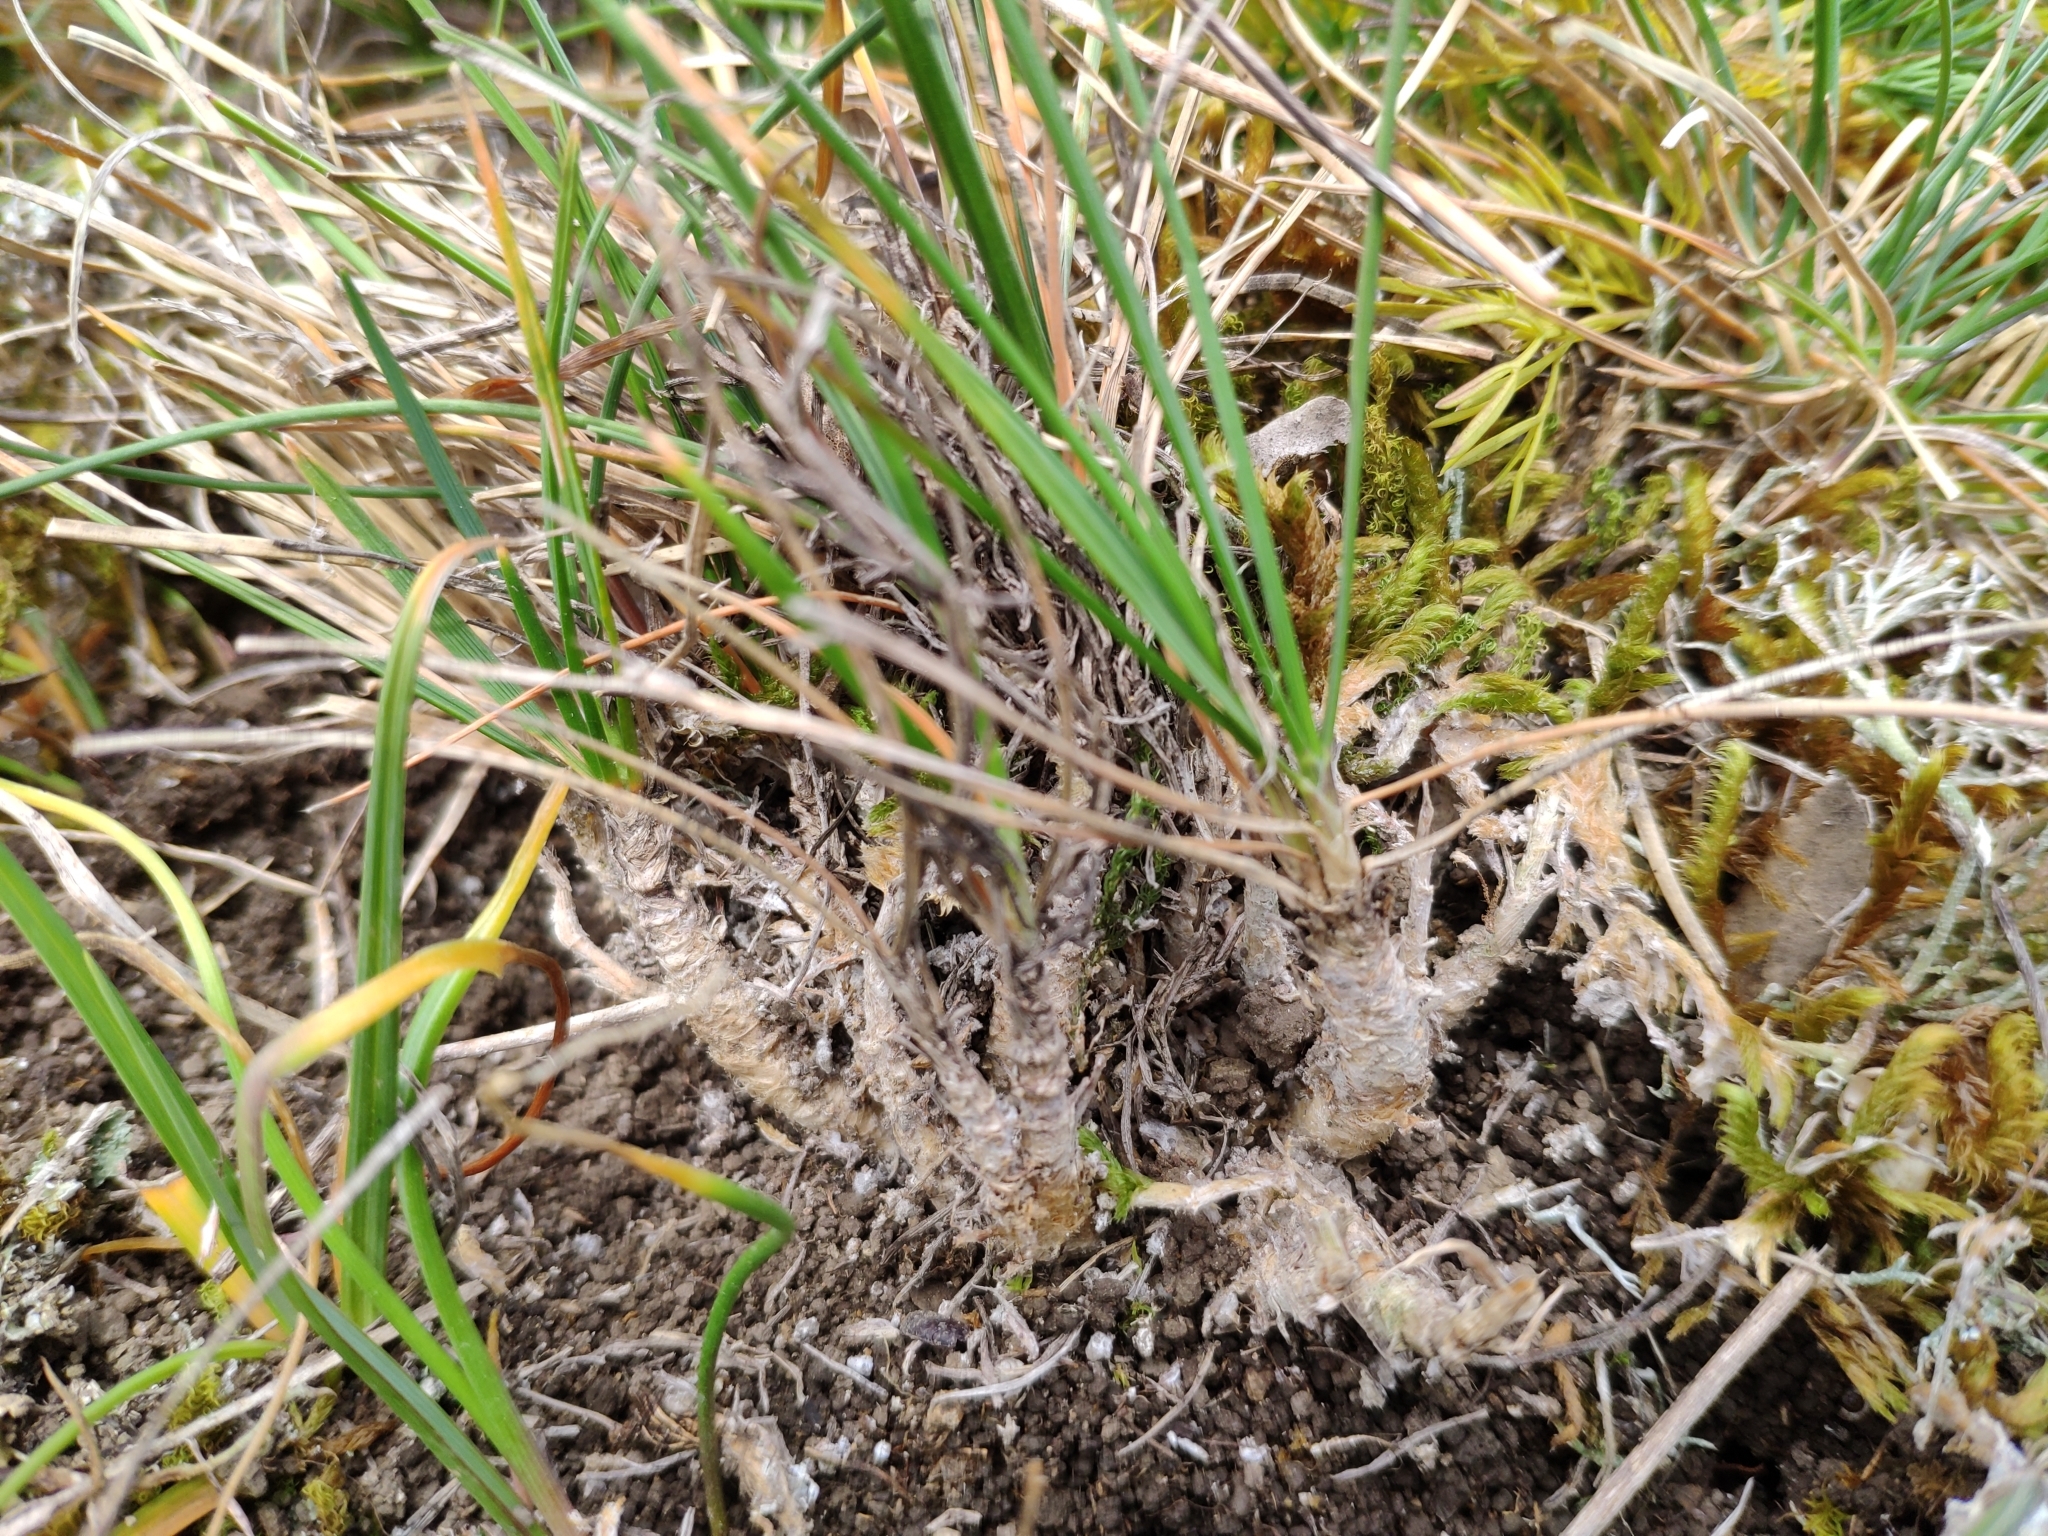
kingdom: Plantae
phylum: Tracheophyta
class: Liliopsida
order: Poales
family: Poaceae
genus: Koeleria
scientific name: Koeleria vallesiana
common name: Somerset hair-grass
